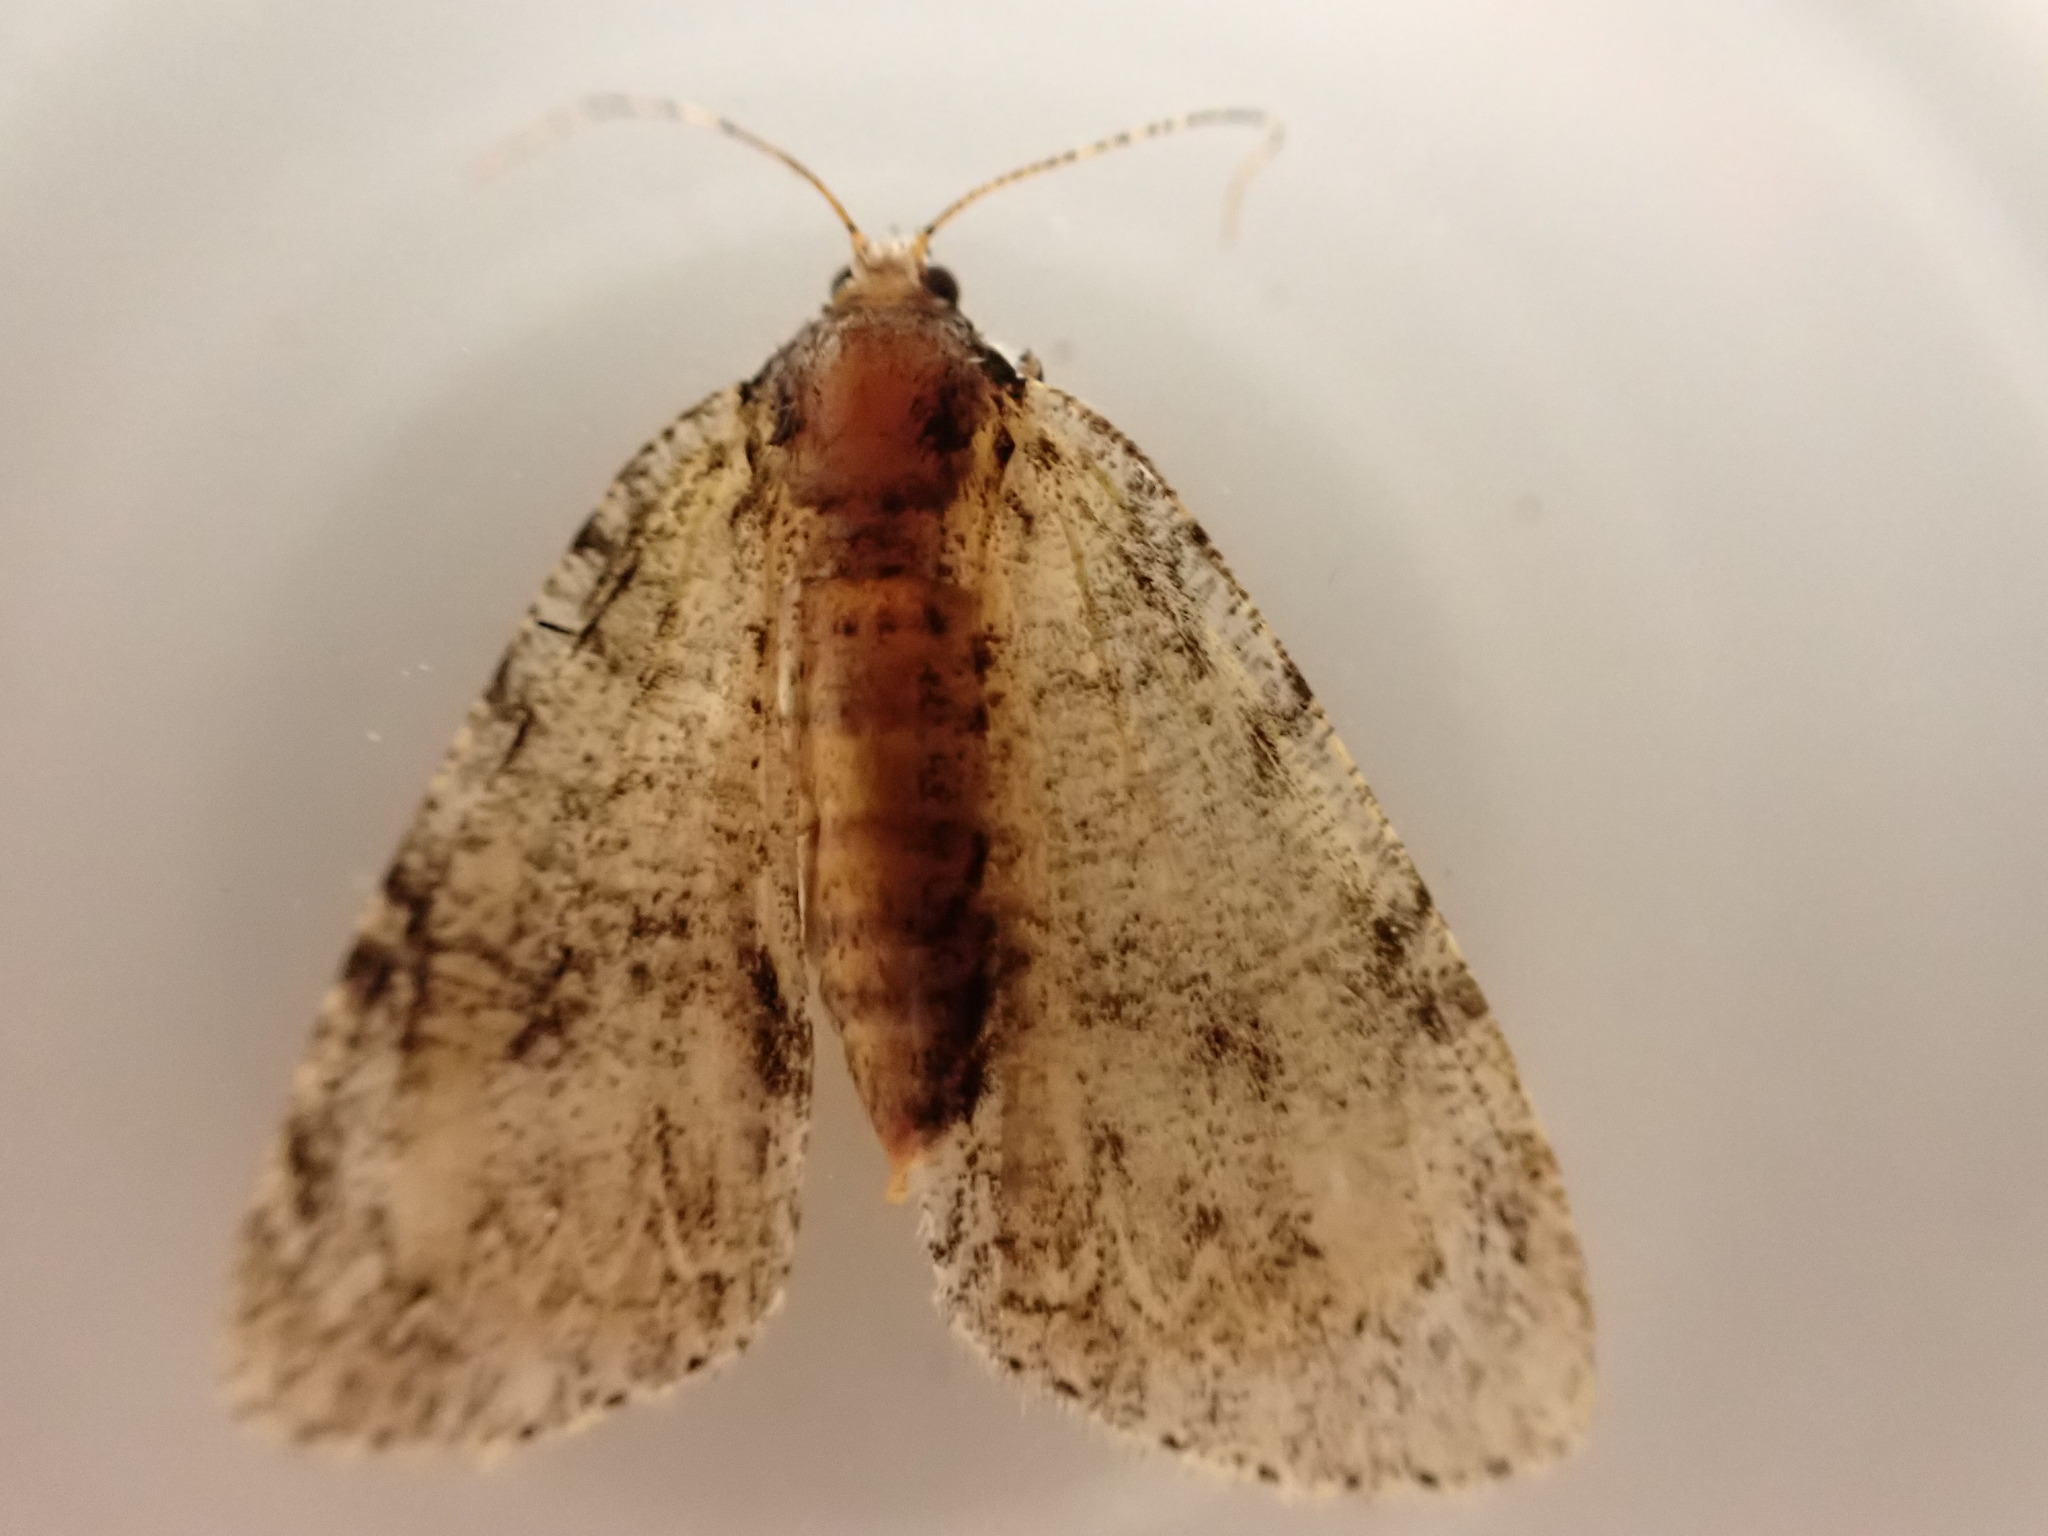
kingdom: Animalia
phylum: Arthropoda
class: Insecta
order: Lepidoptera
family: Geometridae
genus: Pseudocoremia
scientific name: Pseudocoremia suavis
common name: Common forest looper
